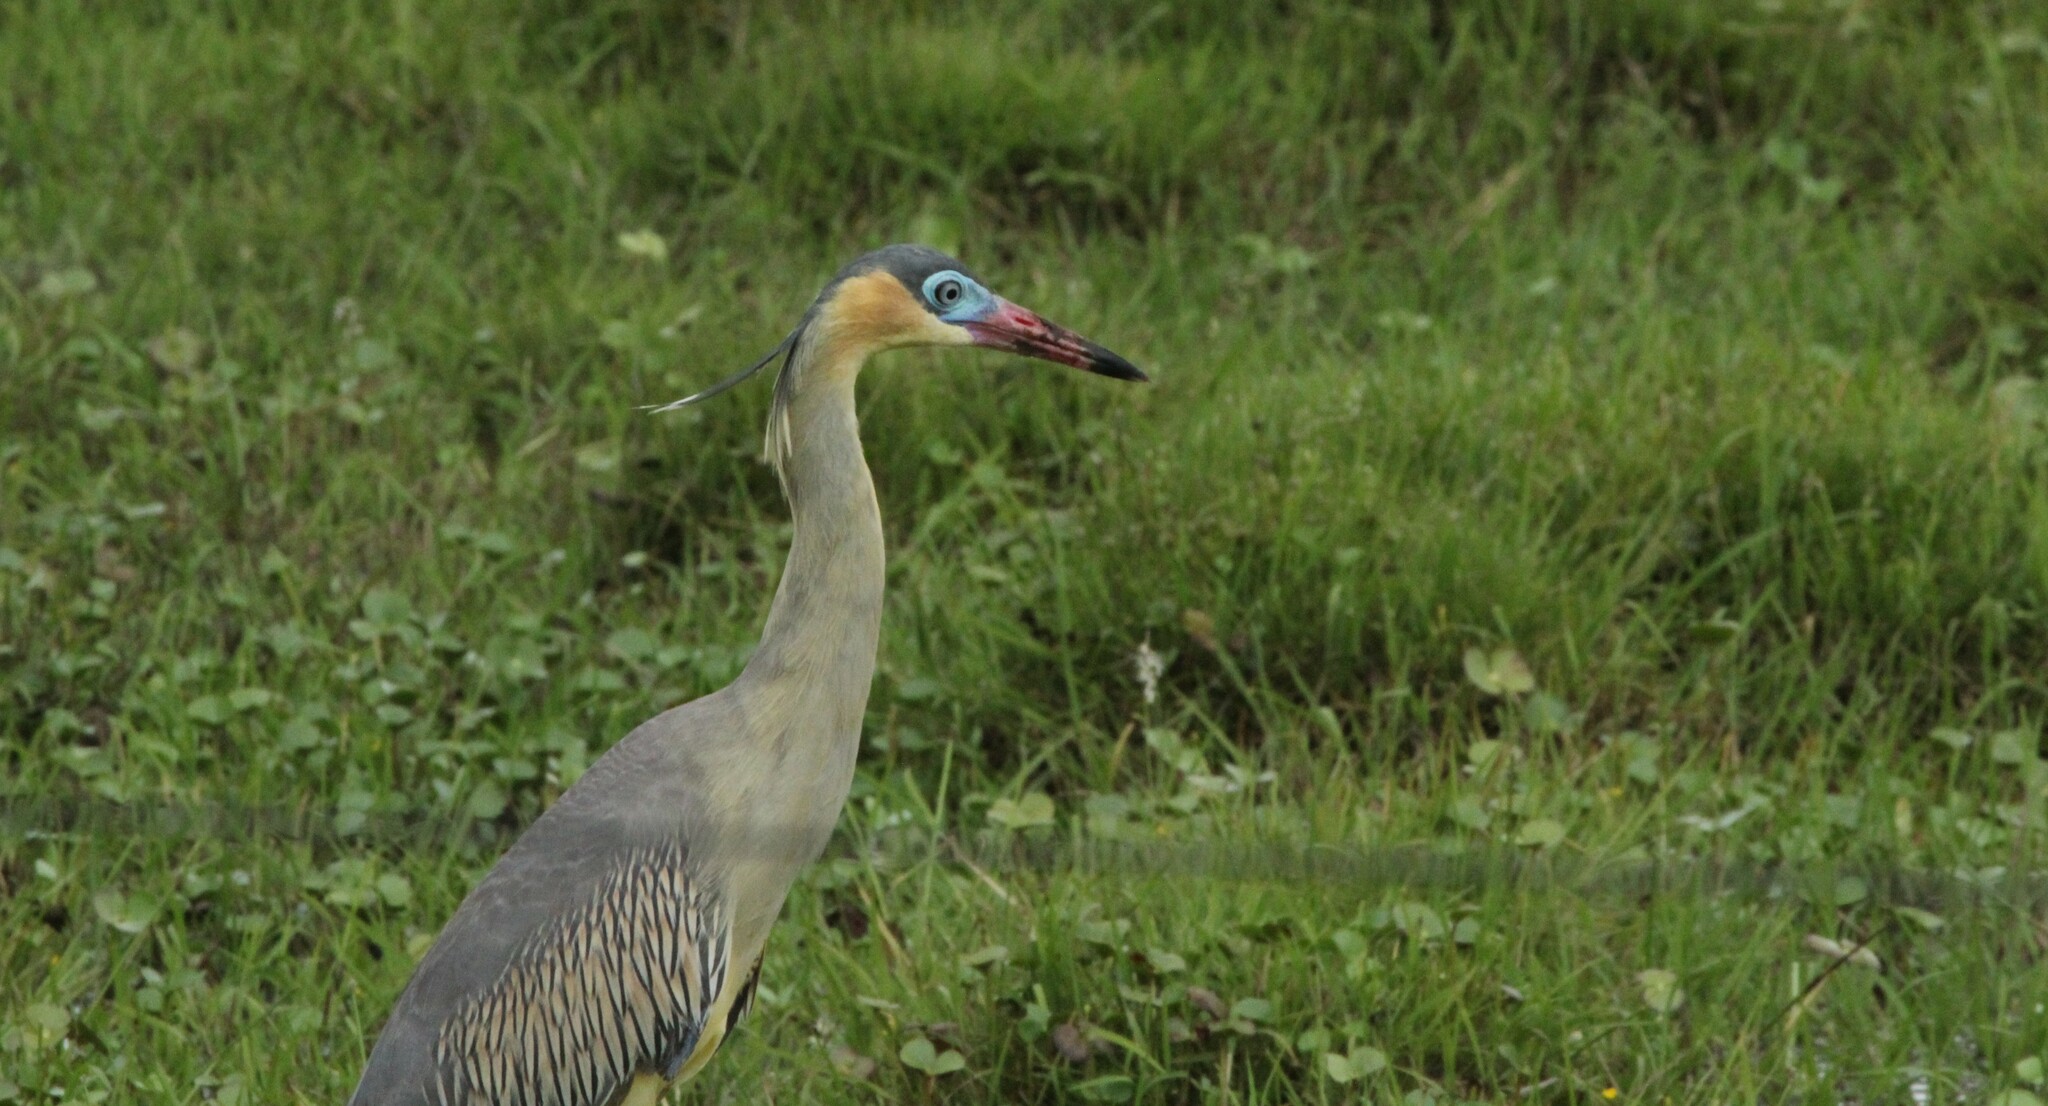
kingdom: Animalia
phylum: Chordata
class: Aves
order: Pelecaniformes
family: Ardeidae
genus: Syrigma
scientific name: Syrigma sibilatrix
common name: Whistling heron
